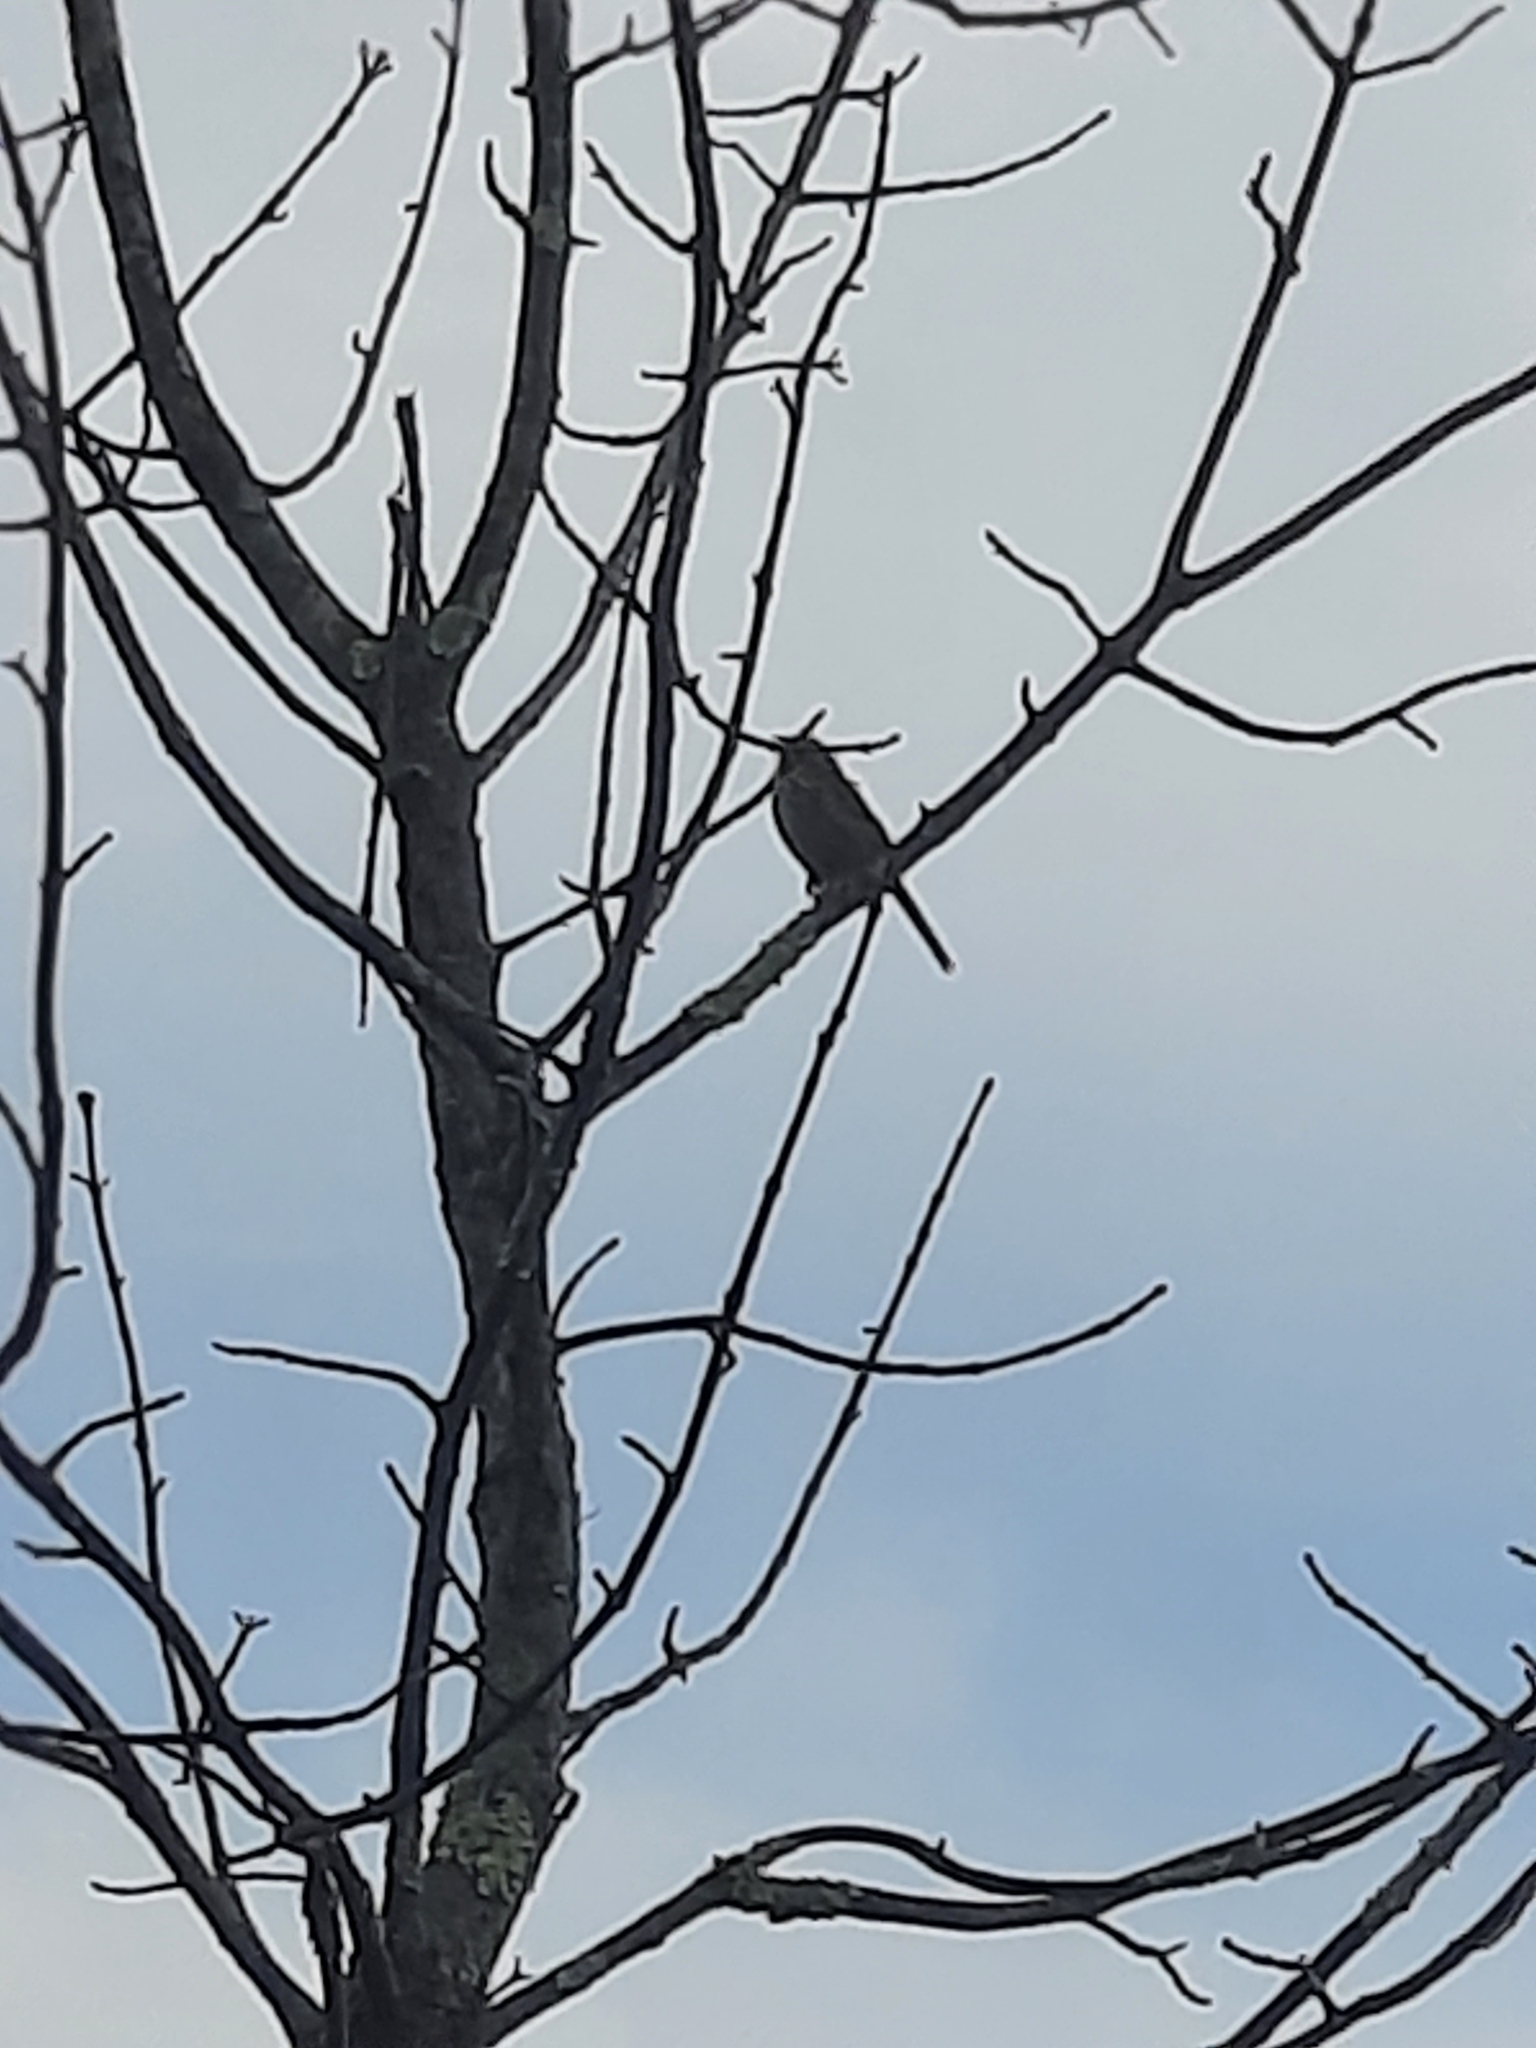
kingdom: Animalia
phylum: Chordata
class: Aves
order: Passeriformes
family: Passerellidae
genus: Melospiza
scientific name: Melospiza melodia
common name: Song sparrow
